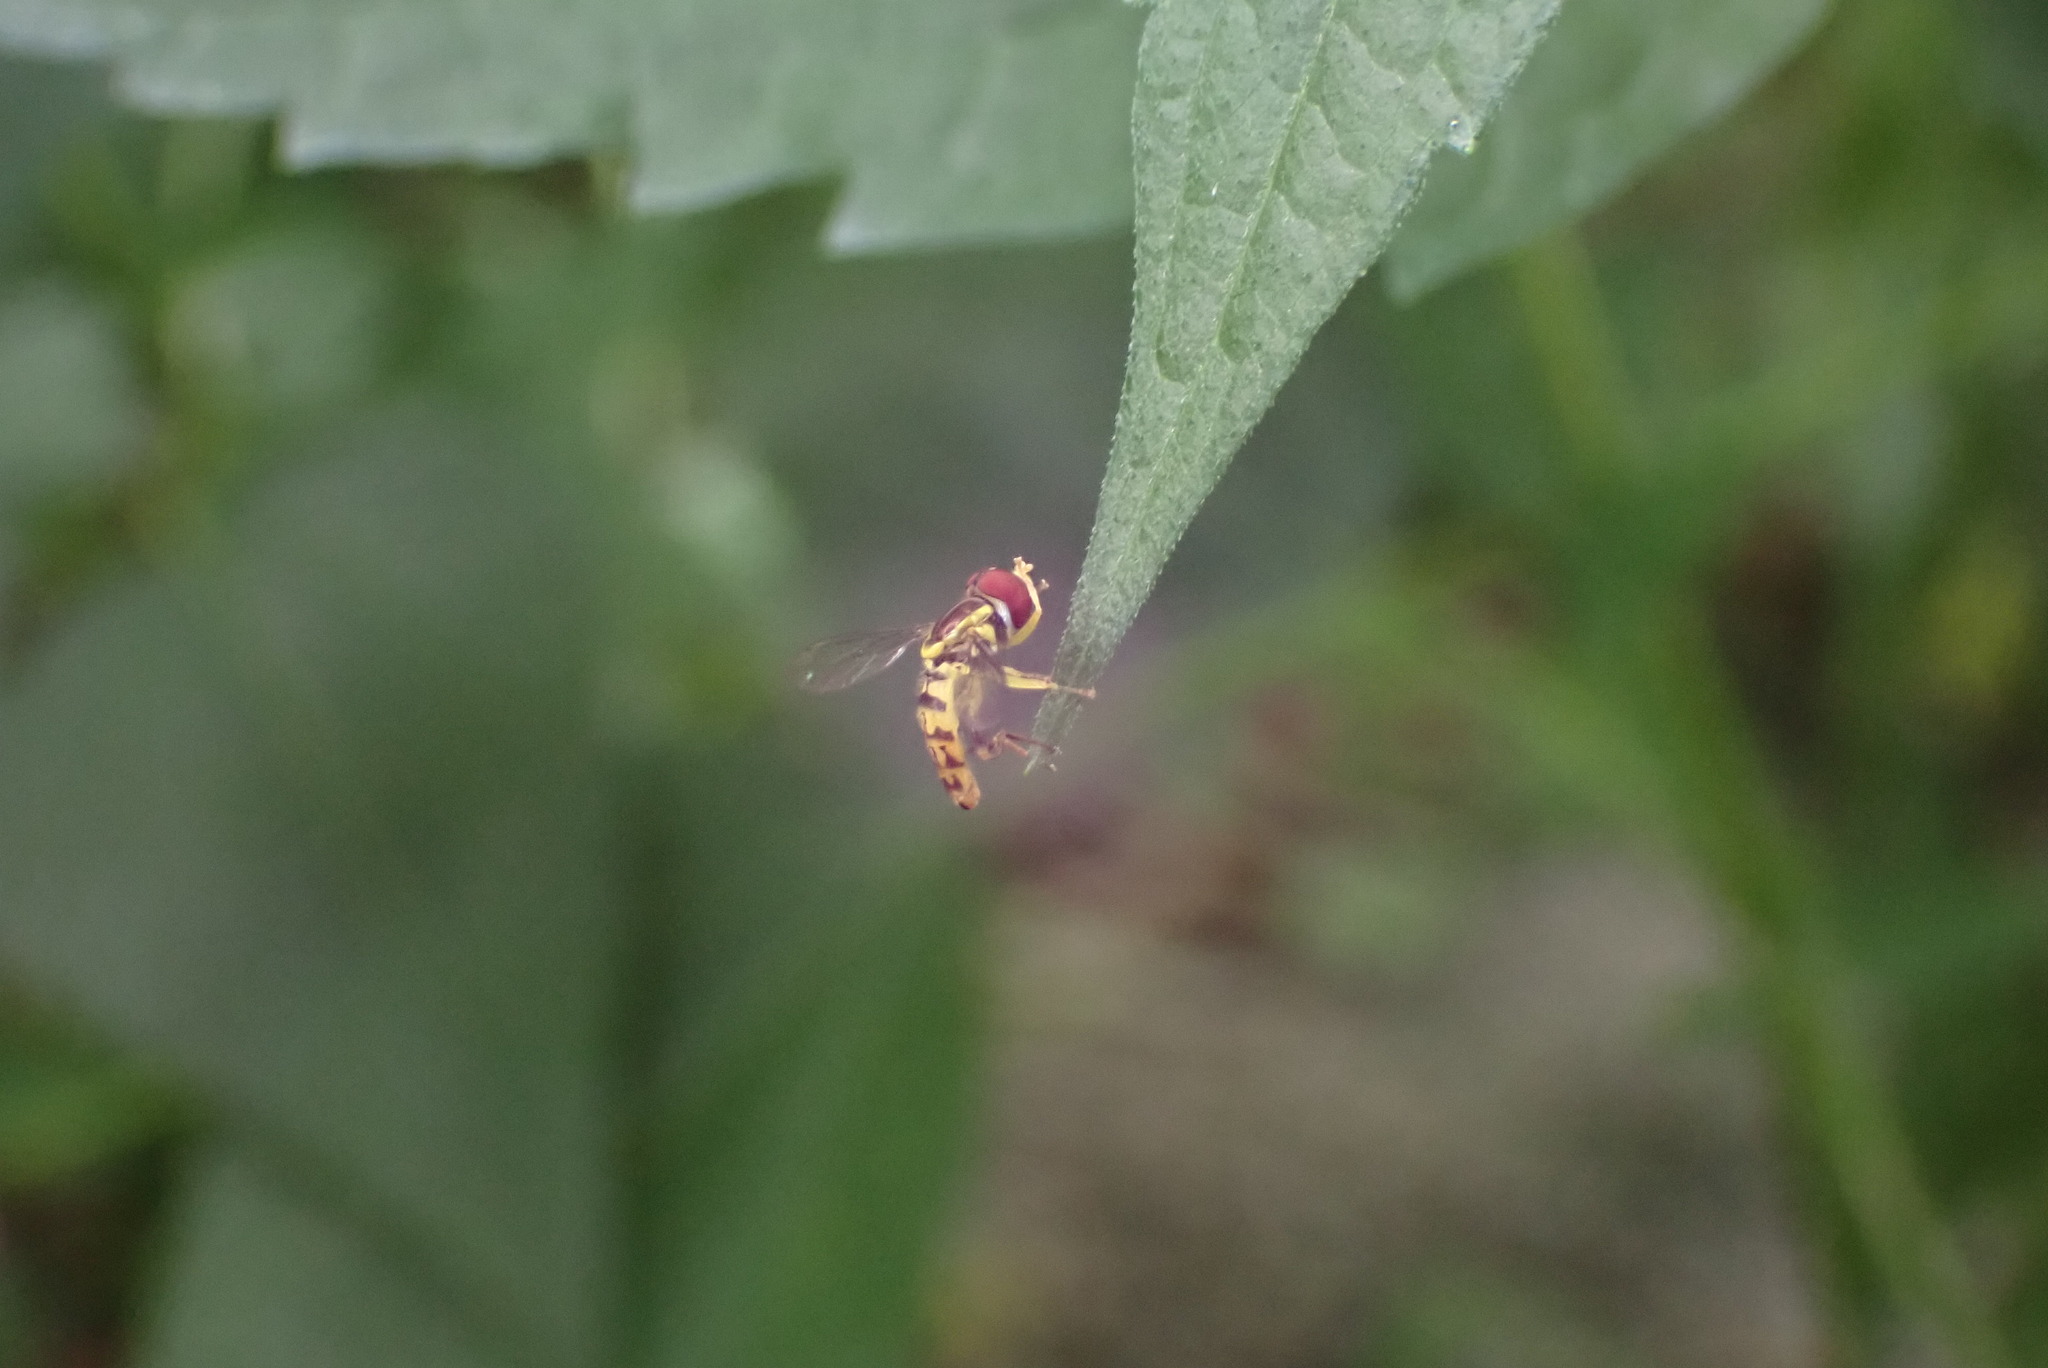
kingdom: Animalia
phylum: Arthropoda
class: Insecta
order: Diptera
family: Syrphidae
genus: Toxomerus
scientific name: Toxomerus geminatus
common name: Eastern calligrapher
